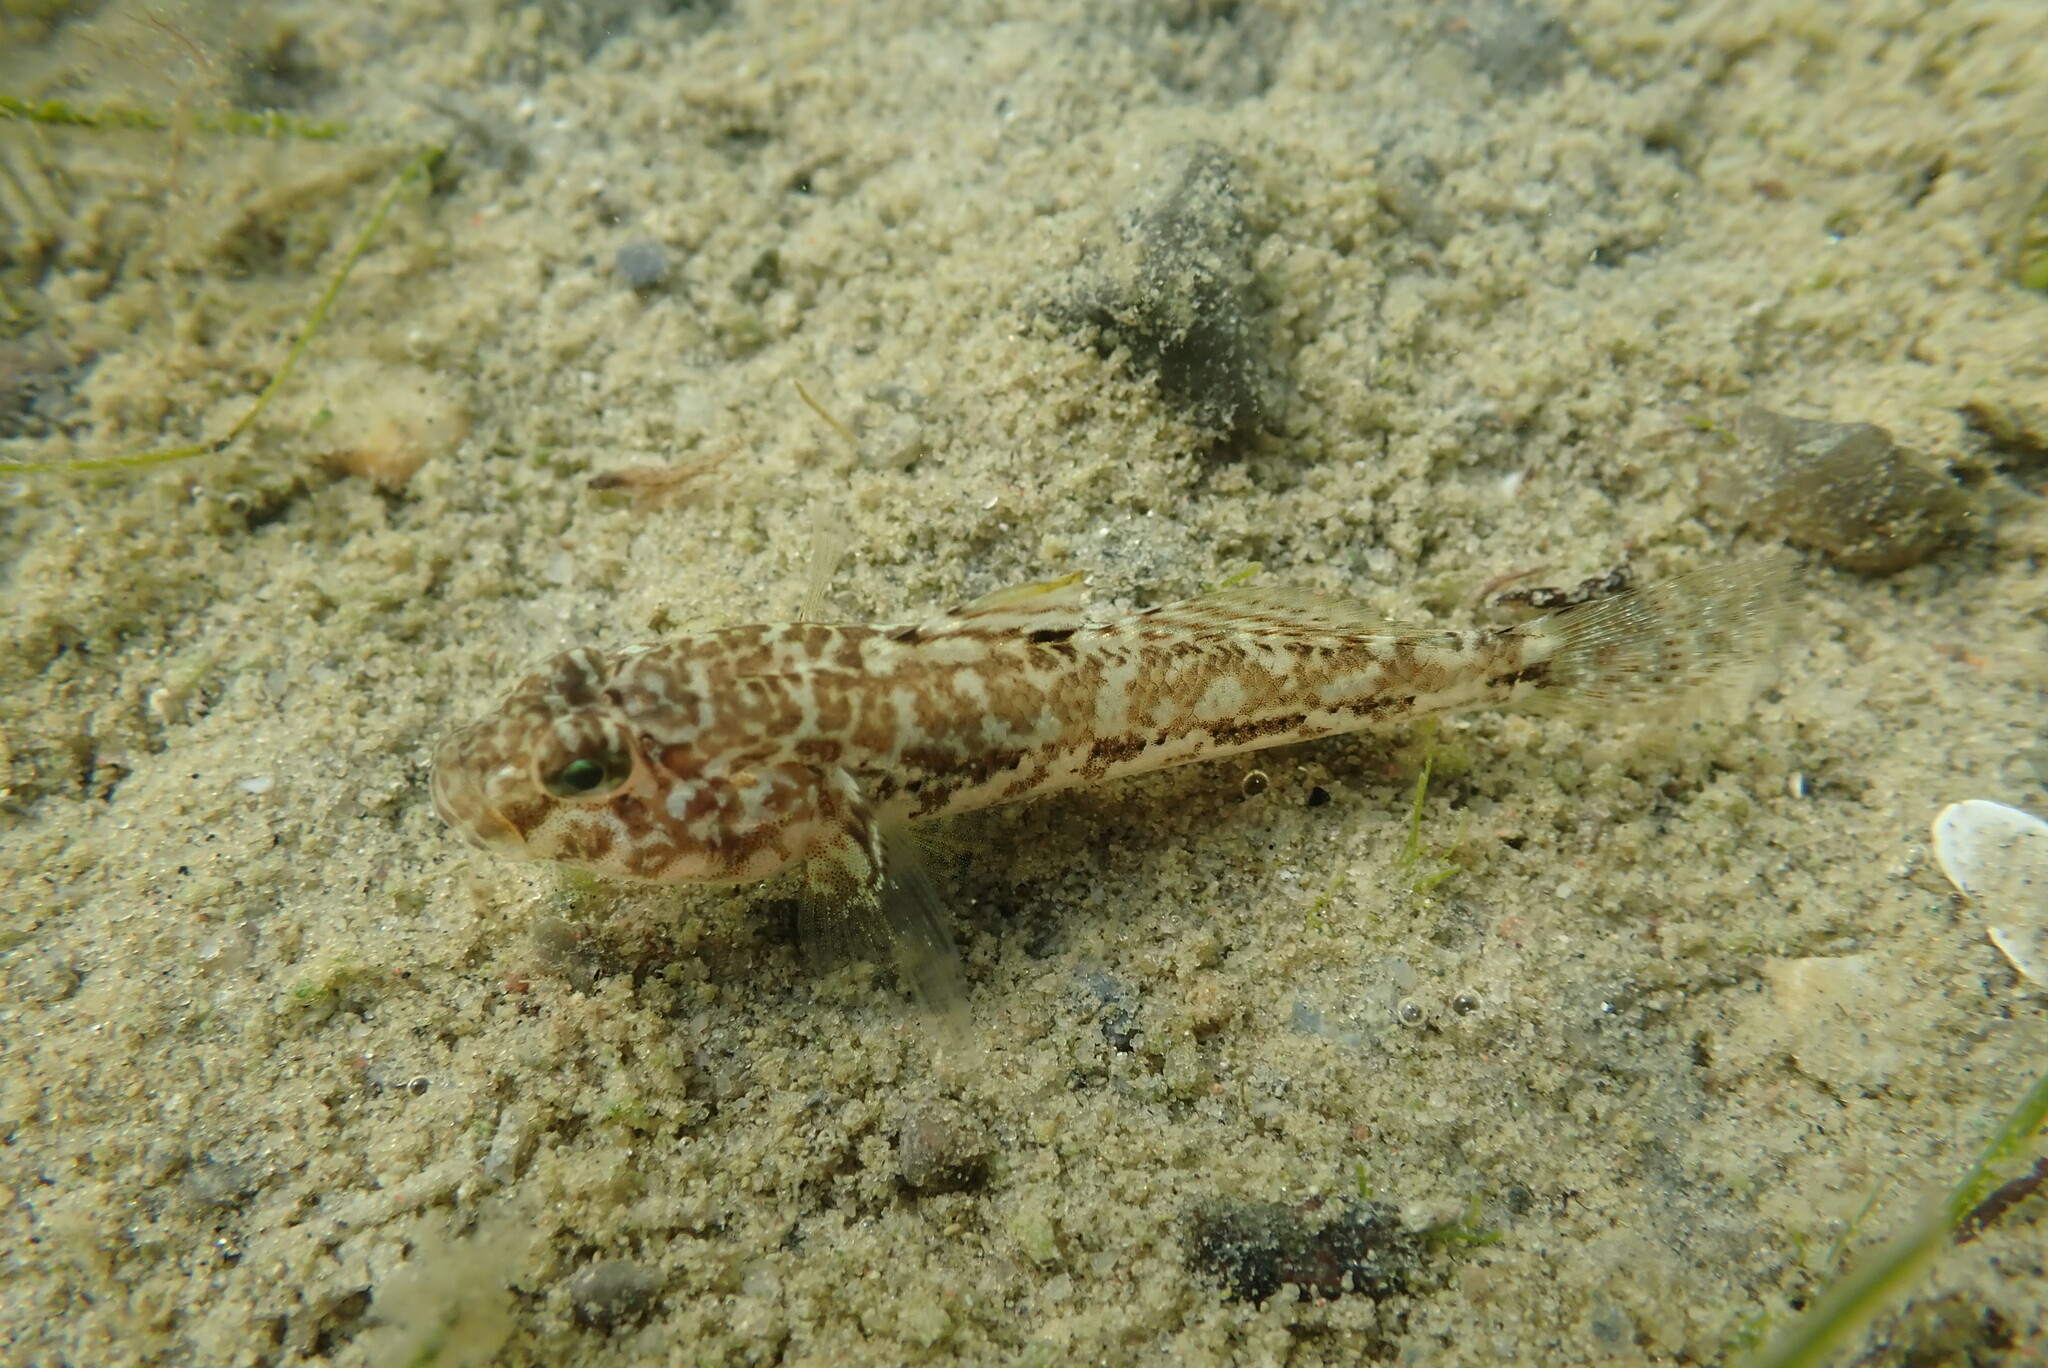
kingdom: Animalia
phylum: Chordata
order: Perciformes
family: Gobiidae
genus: Gobius
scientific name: Gobius niger
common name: Black goby
